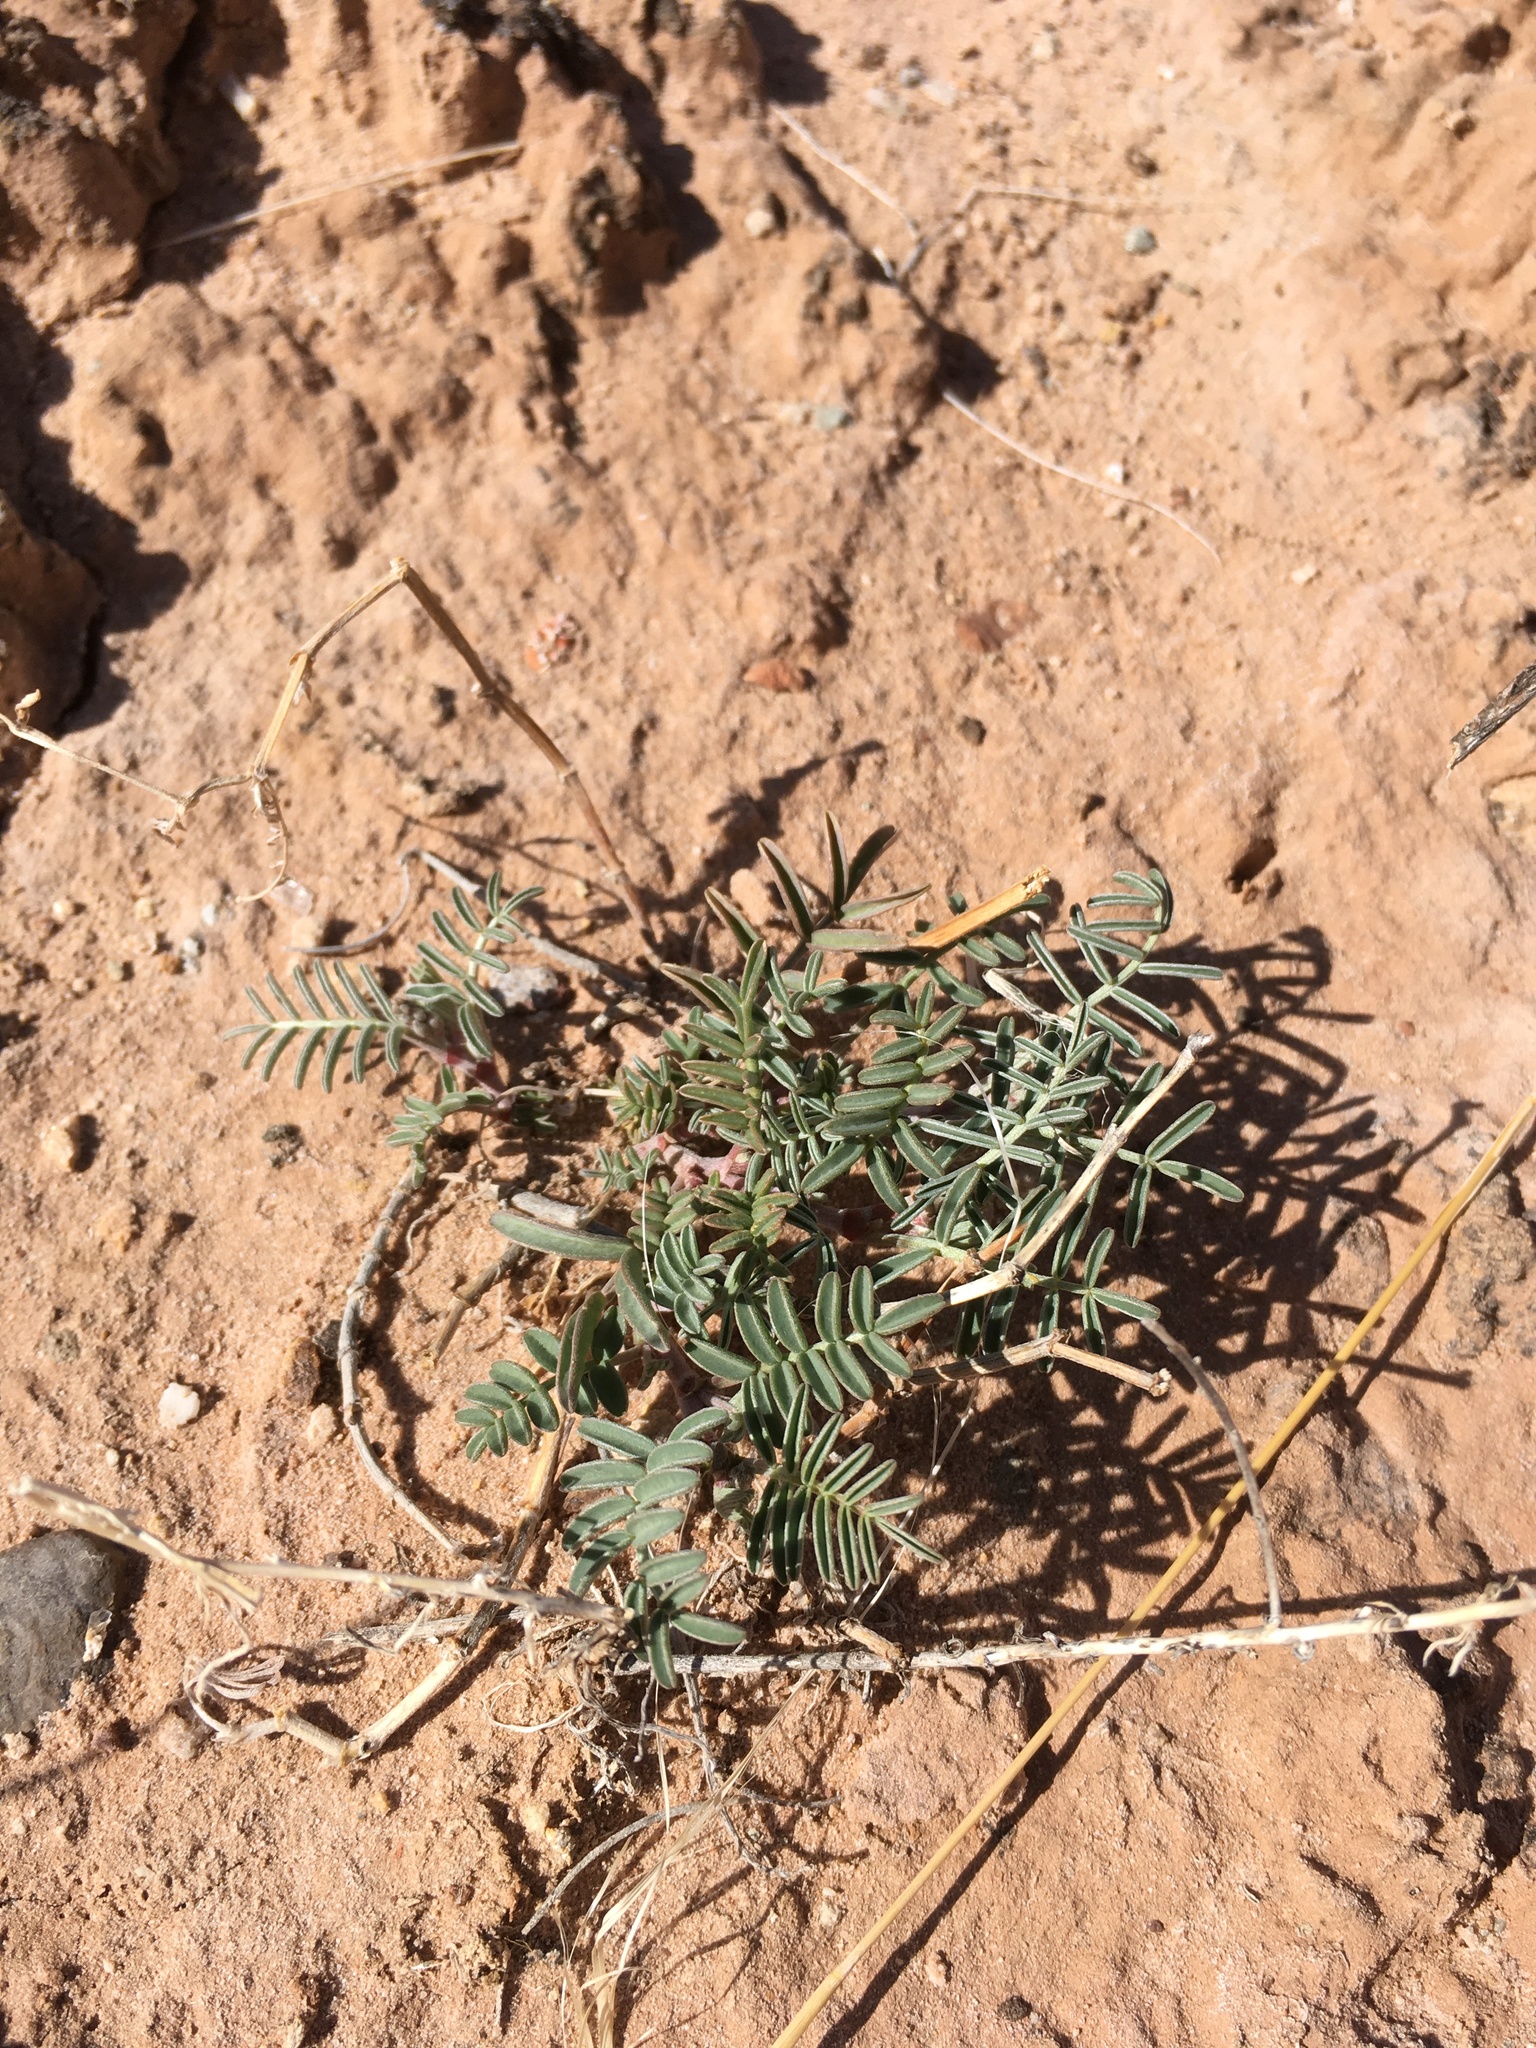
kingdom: Plantae
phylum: Tracheophyta
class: Magnoliopsida
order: Fabales
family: Fabaceae
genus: Astragalus
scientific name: Astragalus fucatus
